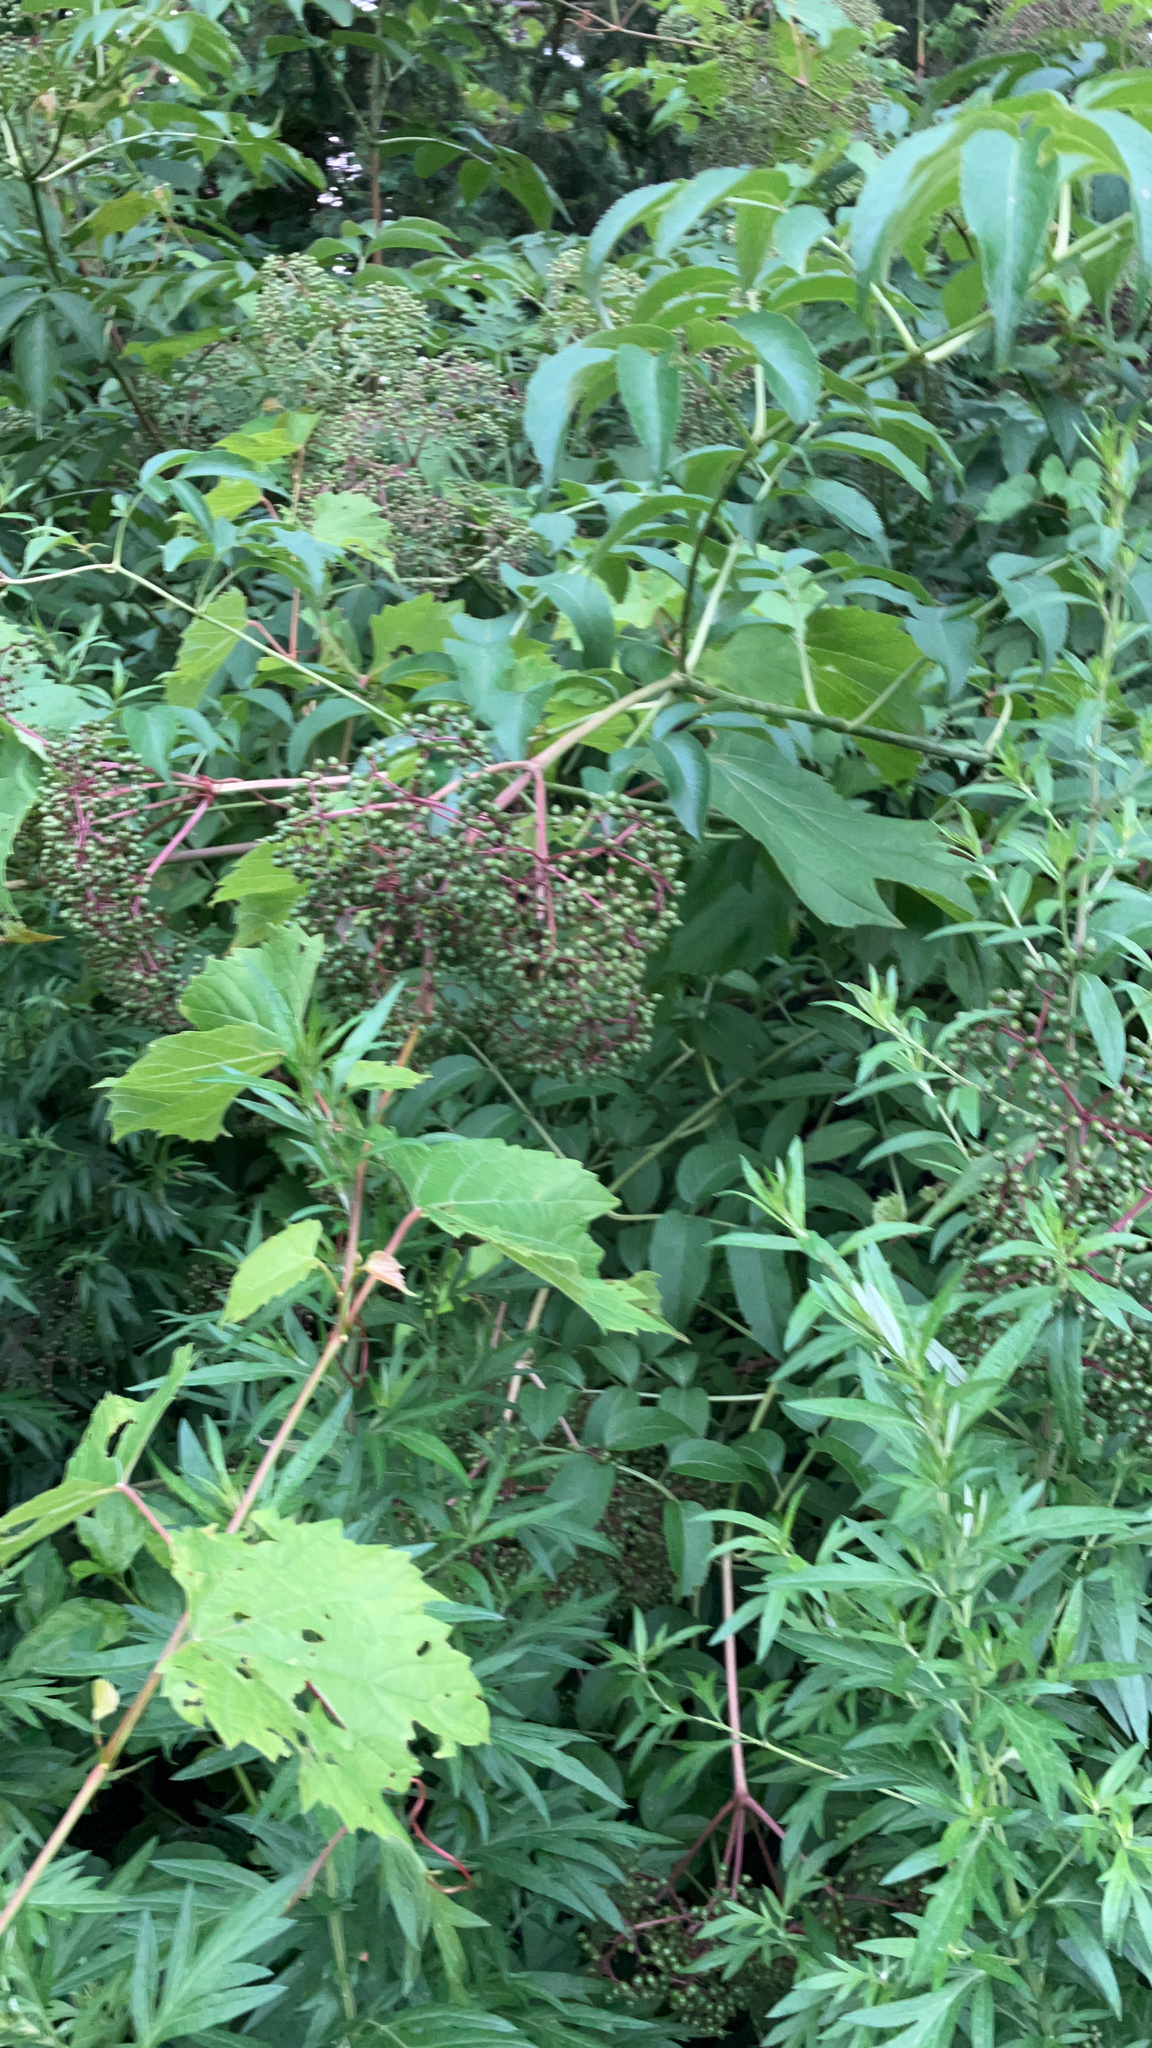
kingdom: Plantae
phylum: Tracheophyta
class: Magnoliopsida
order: Dipsacales
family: Viburnaceae
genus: Sambucus
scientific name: Sambucus canadensis
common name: American elder
